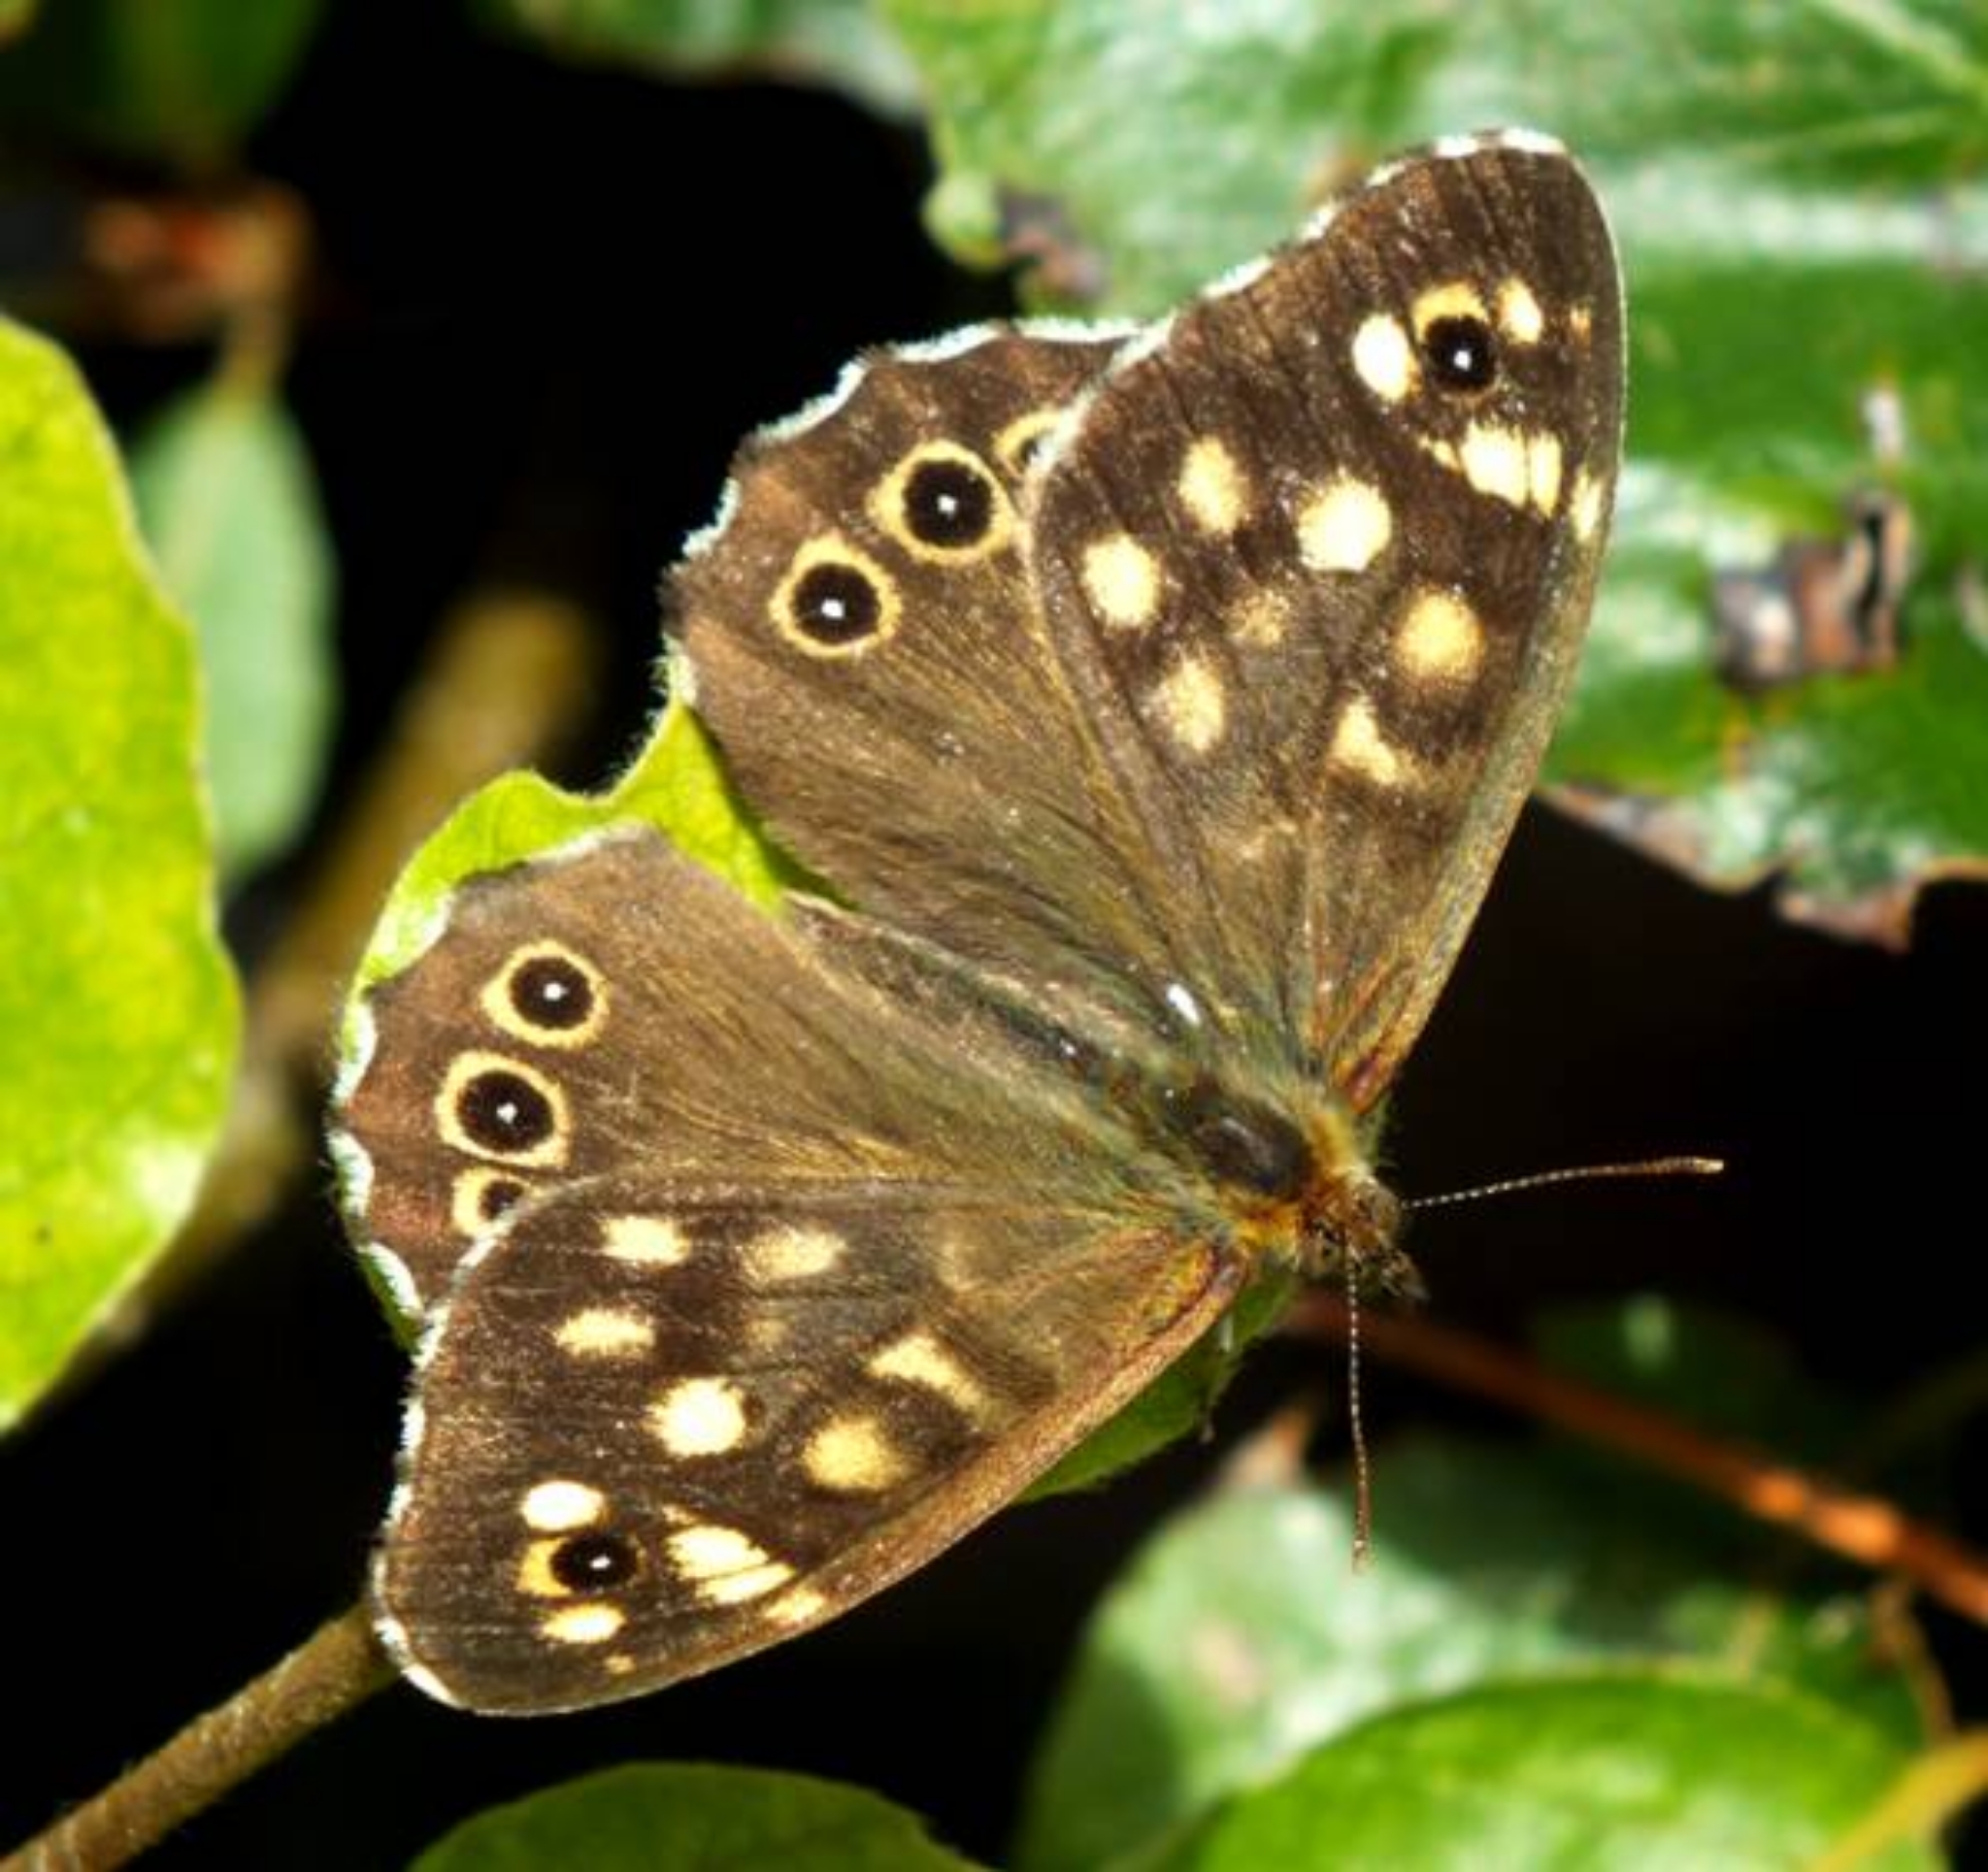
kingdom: Animalia
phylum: Arthropoda
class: Insecta
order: Lepidoptera
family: Nymphalidae
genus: Pararge
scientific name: Pararge aegeria
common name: Speckled wood
